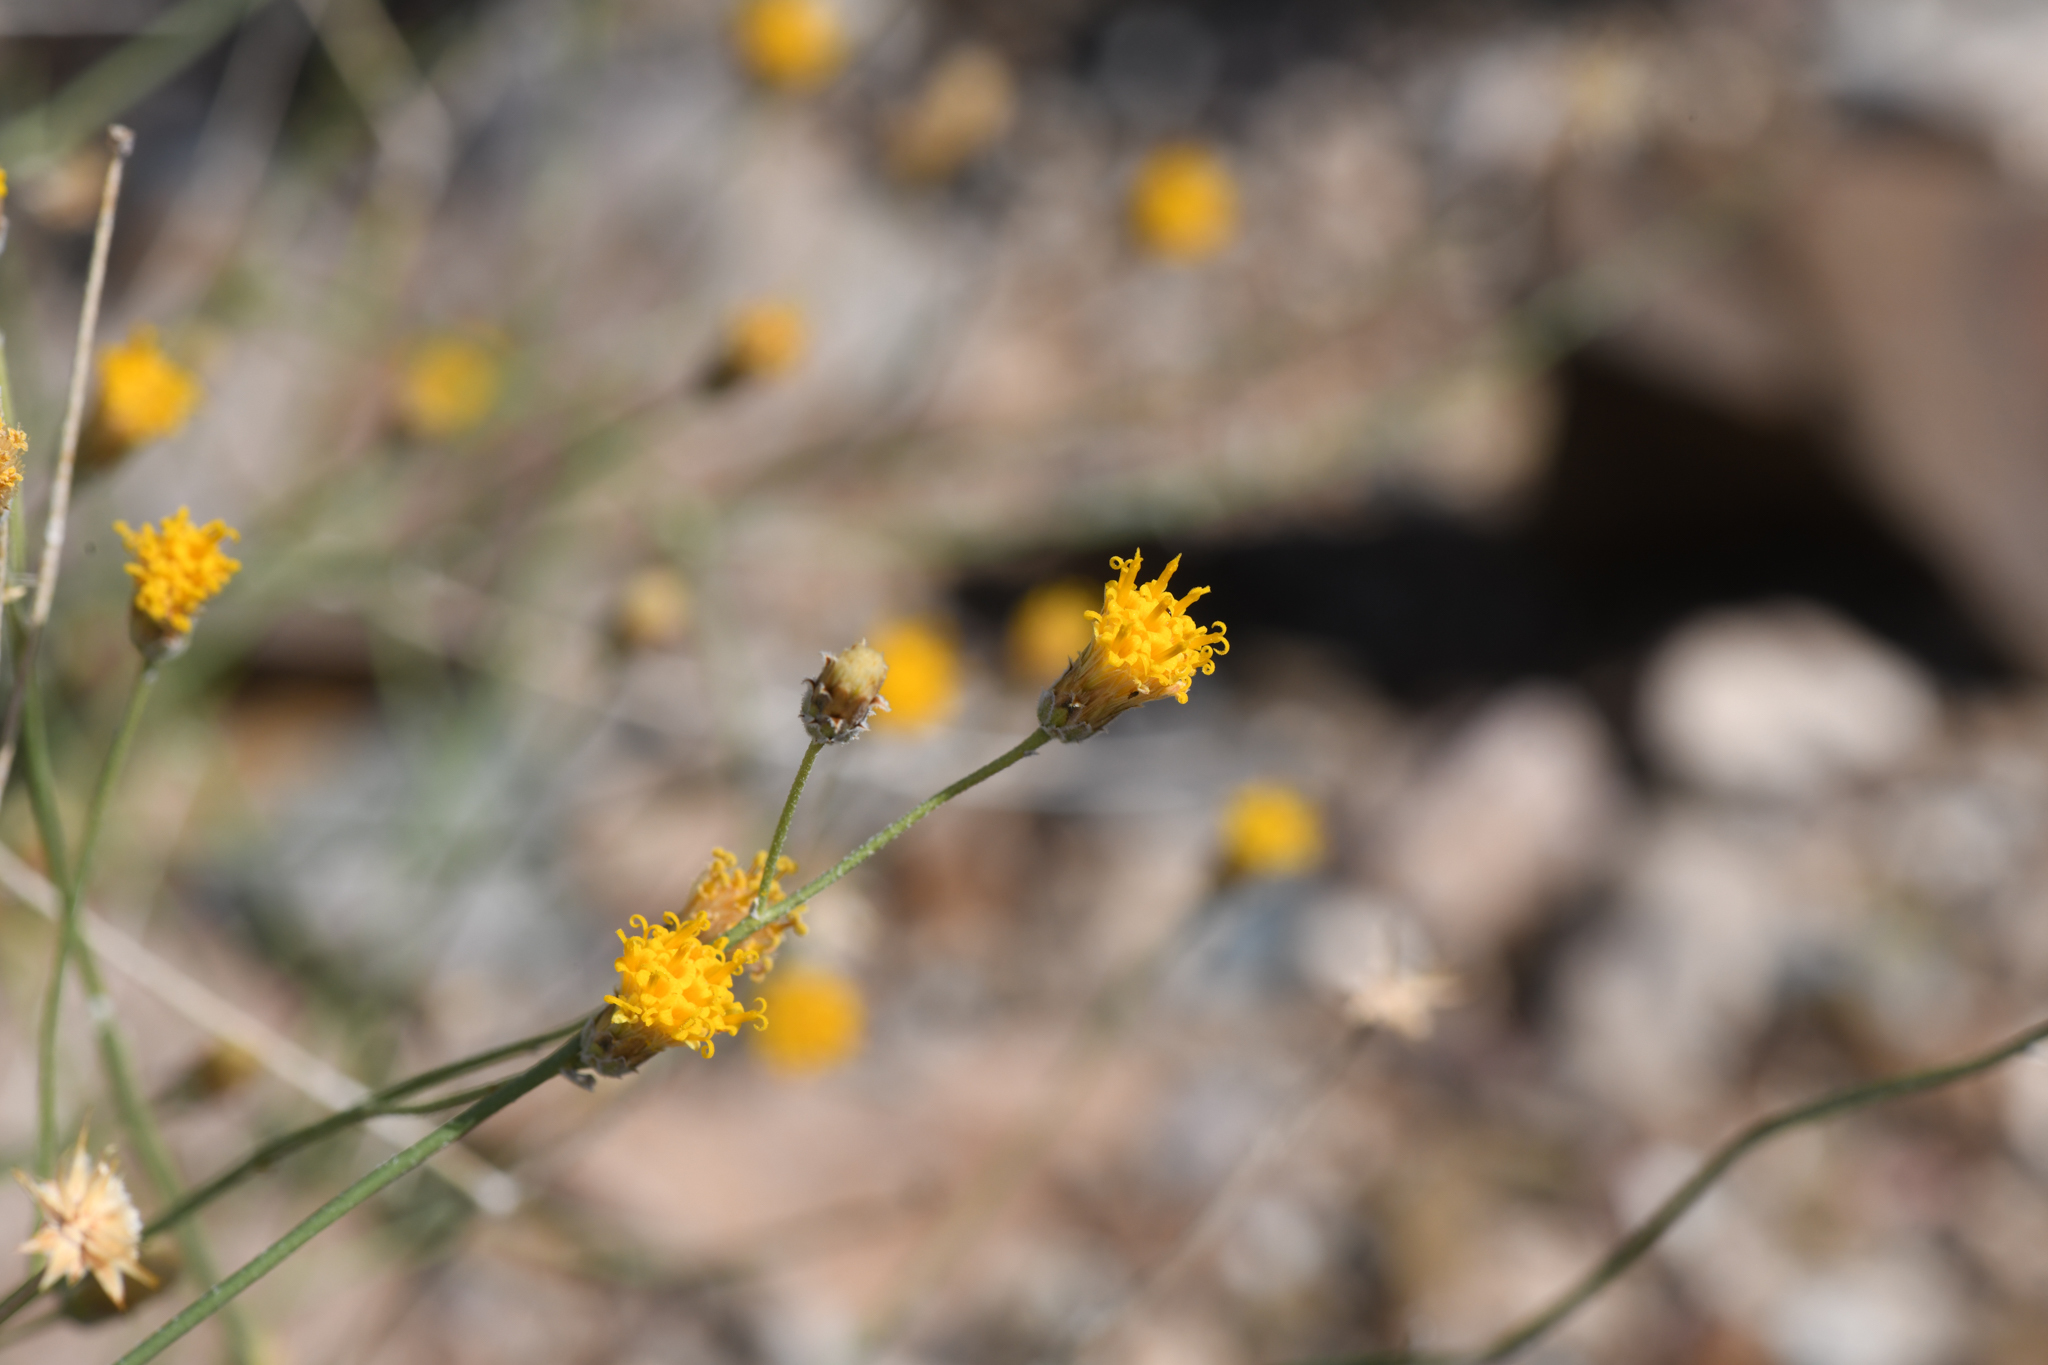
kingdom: Plantae
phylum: Tracheophyta
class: Magnoliopsida
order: Asterales
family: Asteraceae
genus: Bebbia
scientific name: Bebbia juncea
